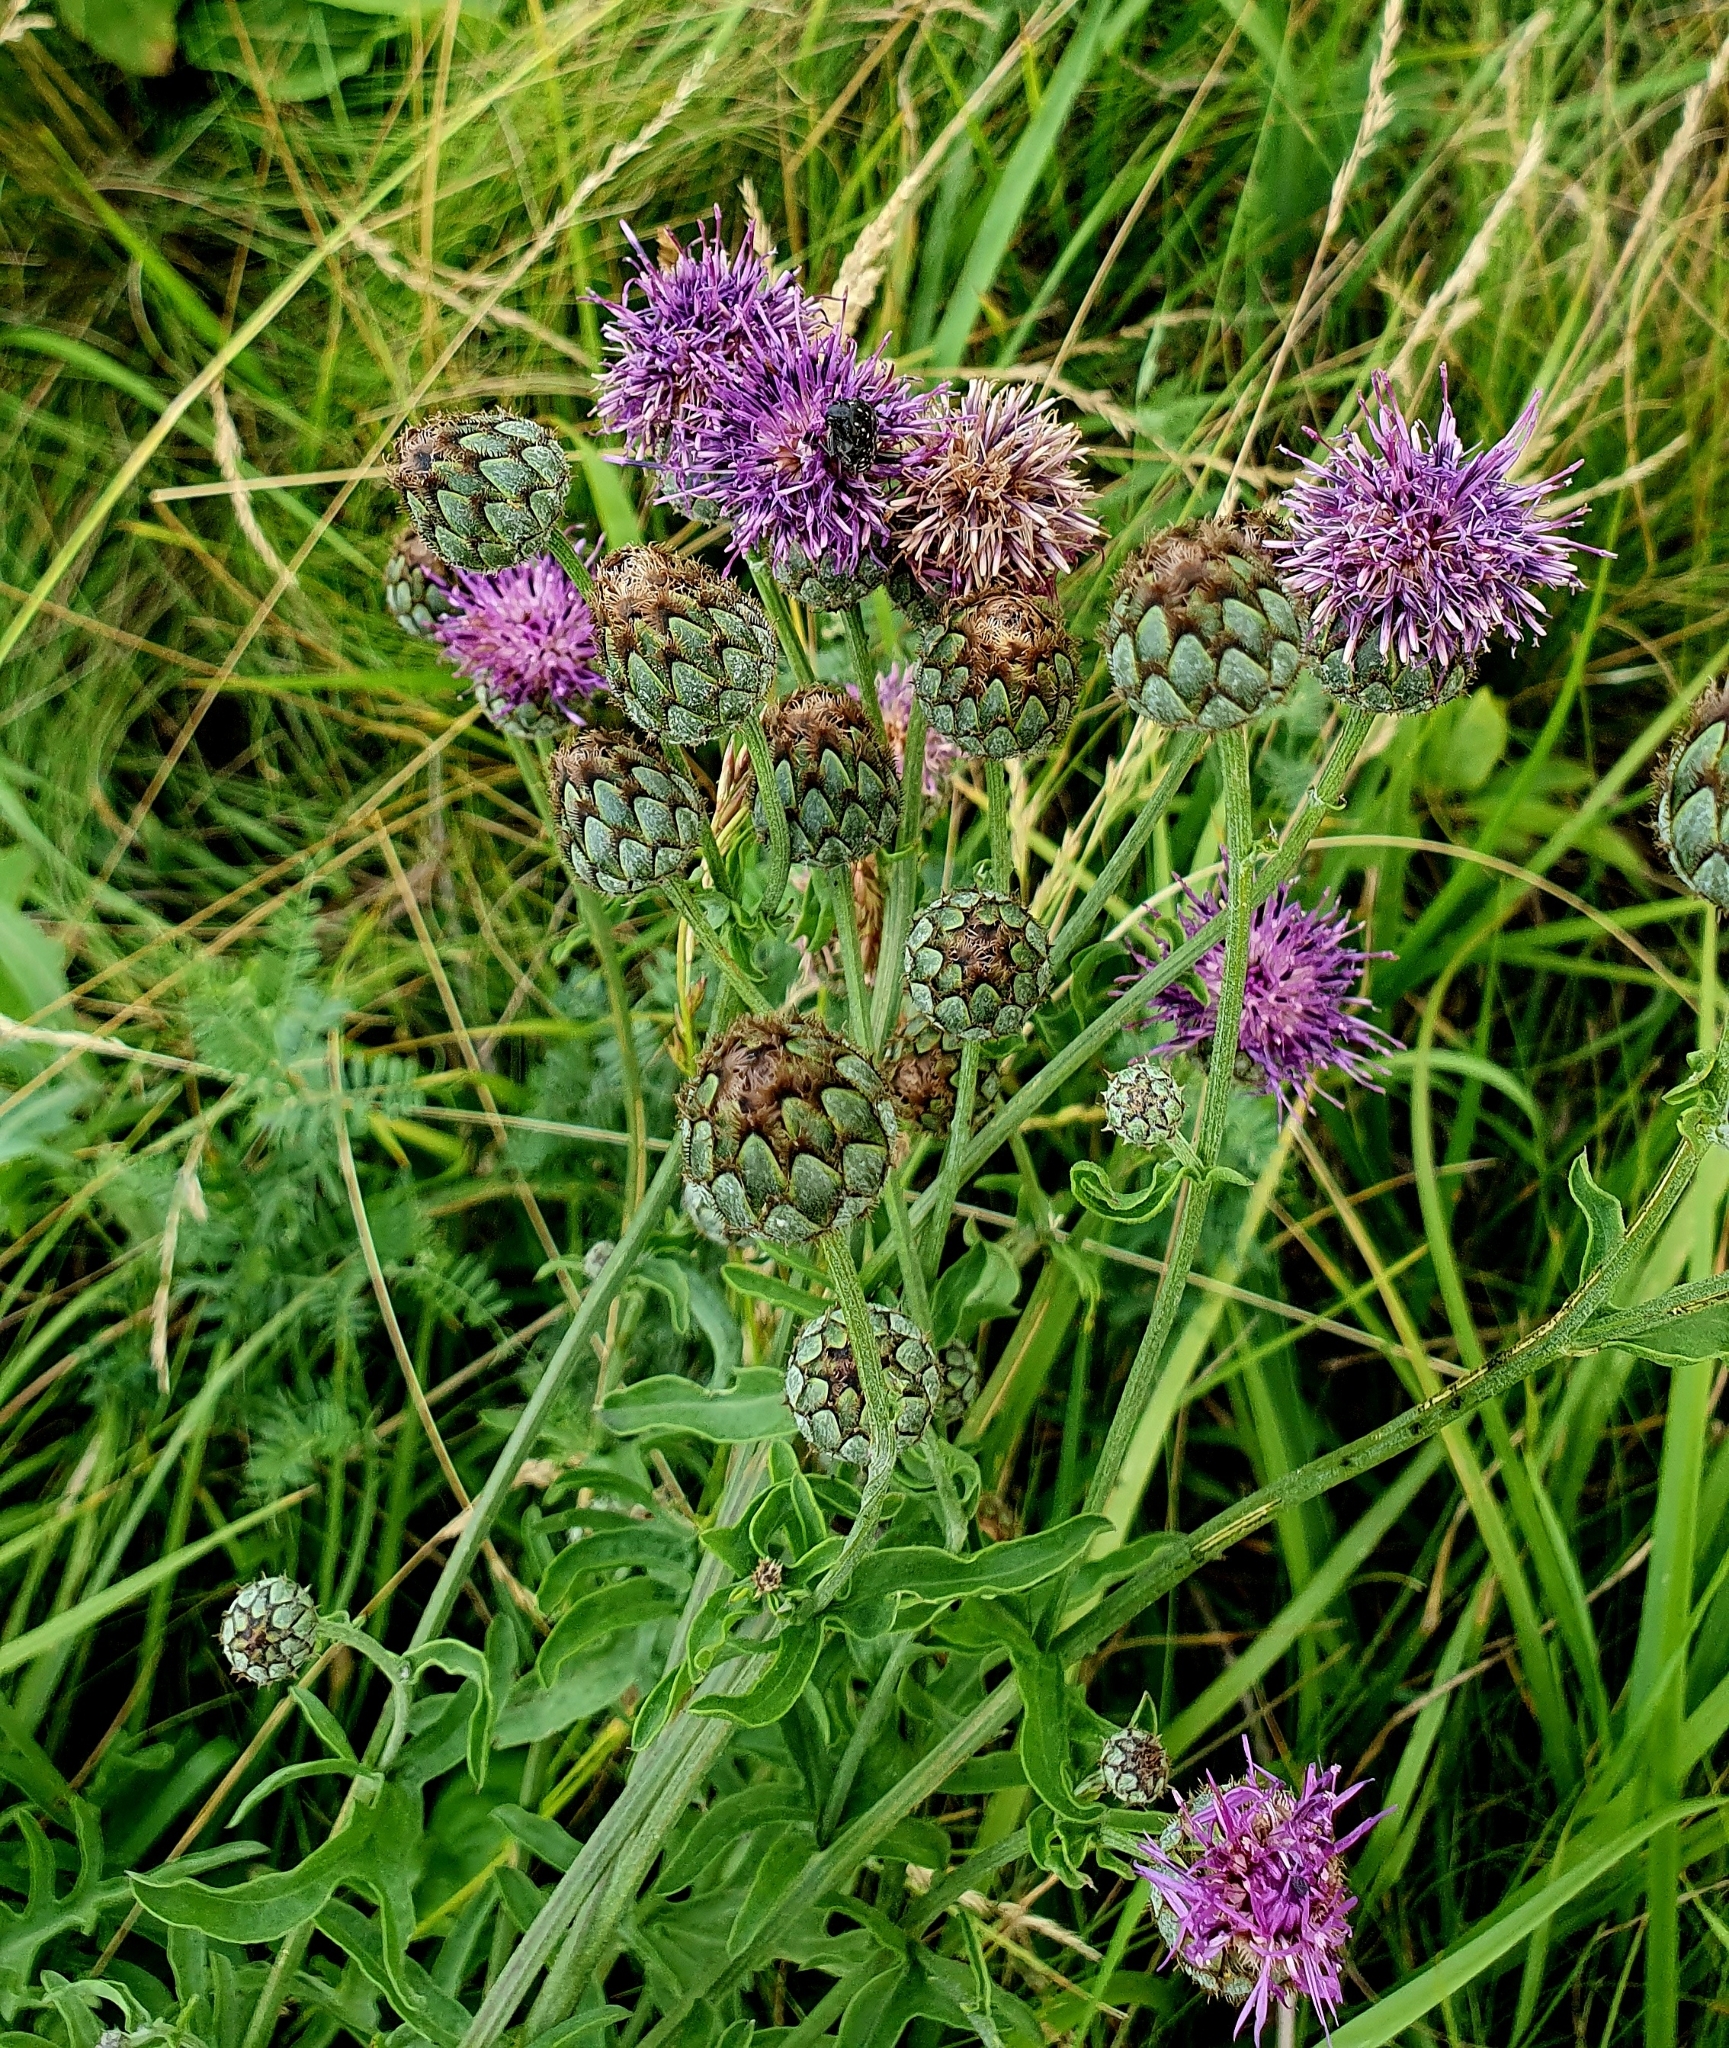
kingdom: Plantae
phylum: Tracheophyta
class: Magnoliopsida
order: Asterales
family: Asteraceae
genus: Centaurea
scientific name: Centaurea scabiosa
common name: Greater knapweed
